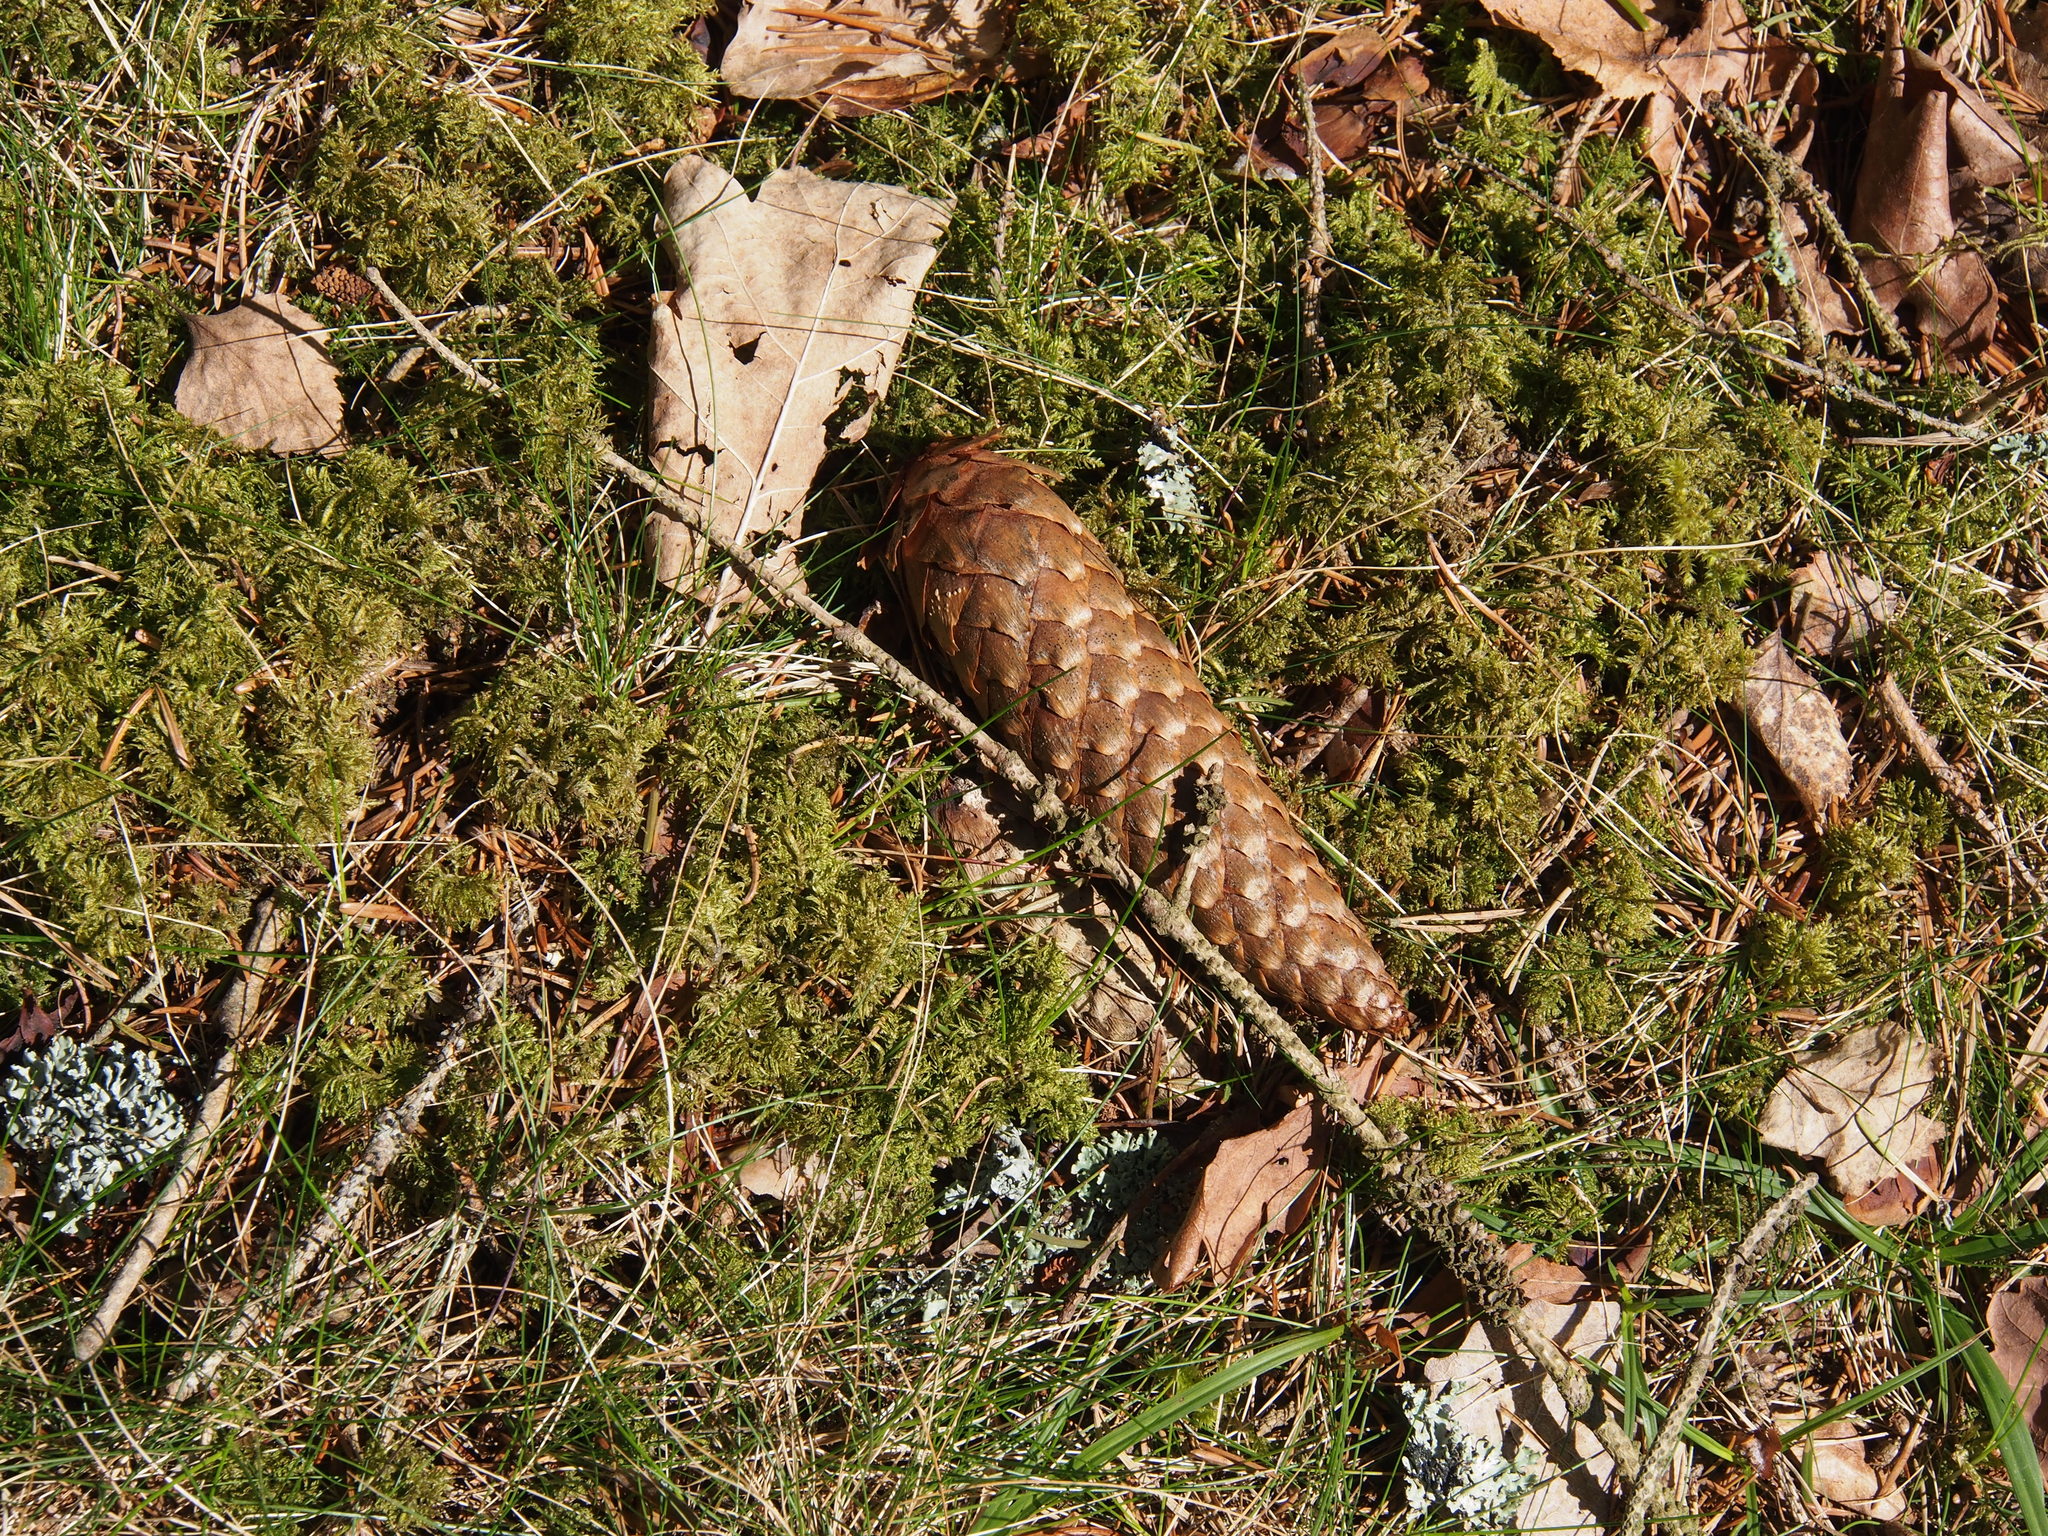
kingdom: Plantae
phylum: Tracheophyta
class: Pinopsida
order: Pinales
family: Pinaceae
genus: Picea
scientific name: Picea abies
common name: Norway spruce
